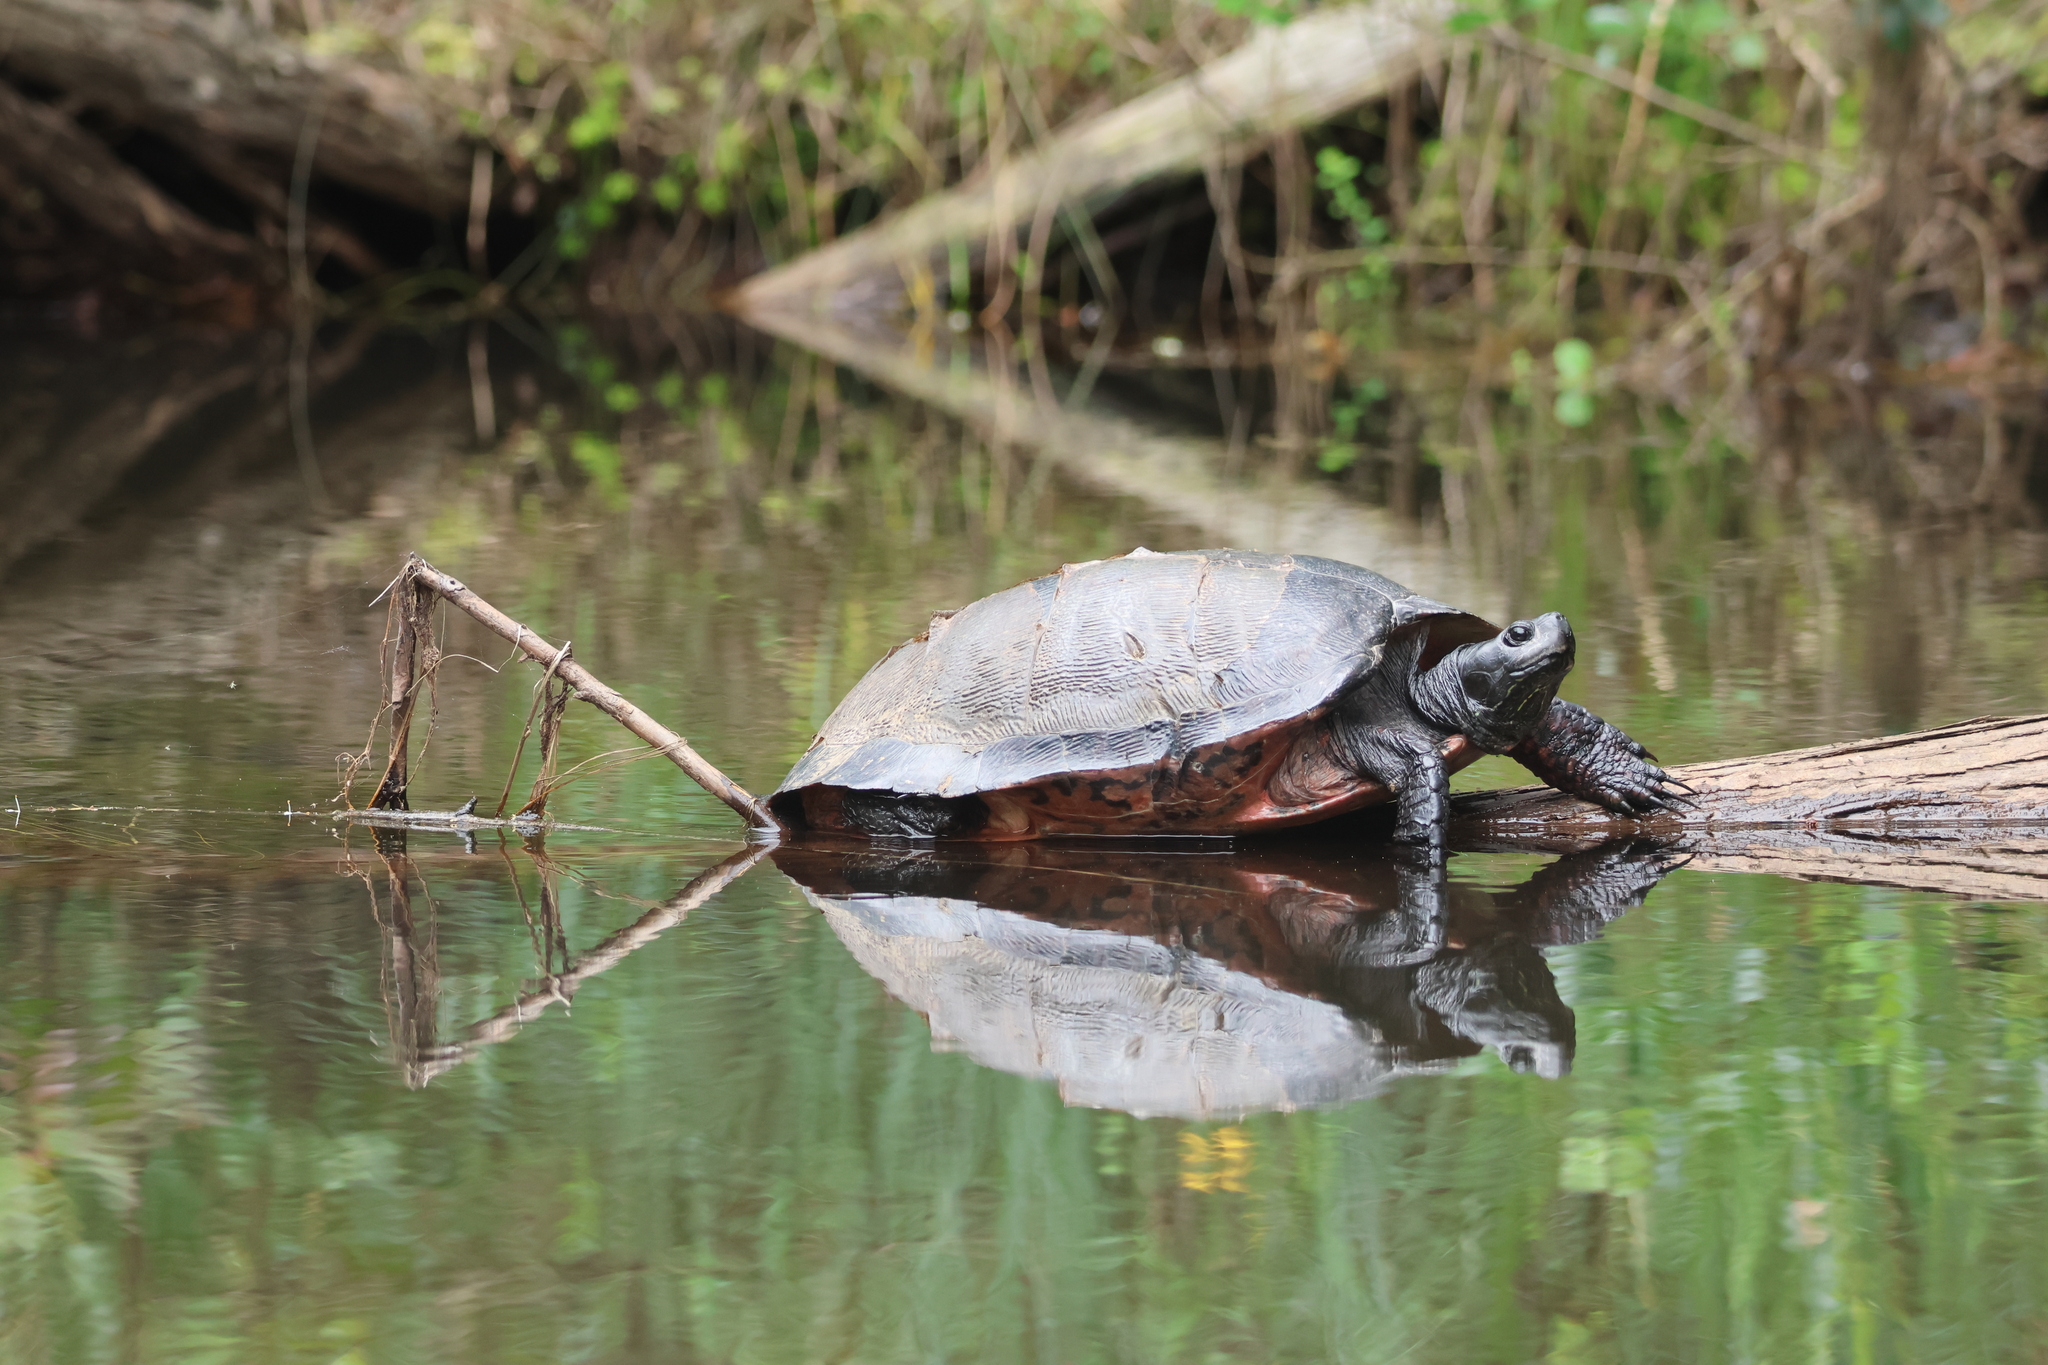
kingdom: Animalia
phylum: Chordata
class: Testudines
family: Emydidae
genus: Pseudemys
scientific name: Pseudemys rubriventris
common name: American red-bellied turtle
